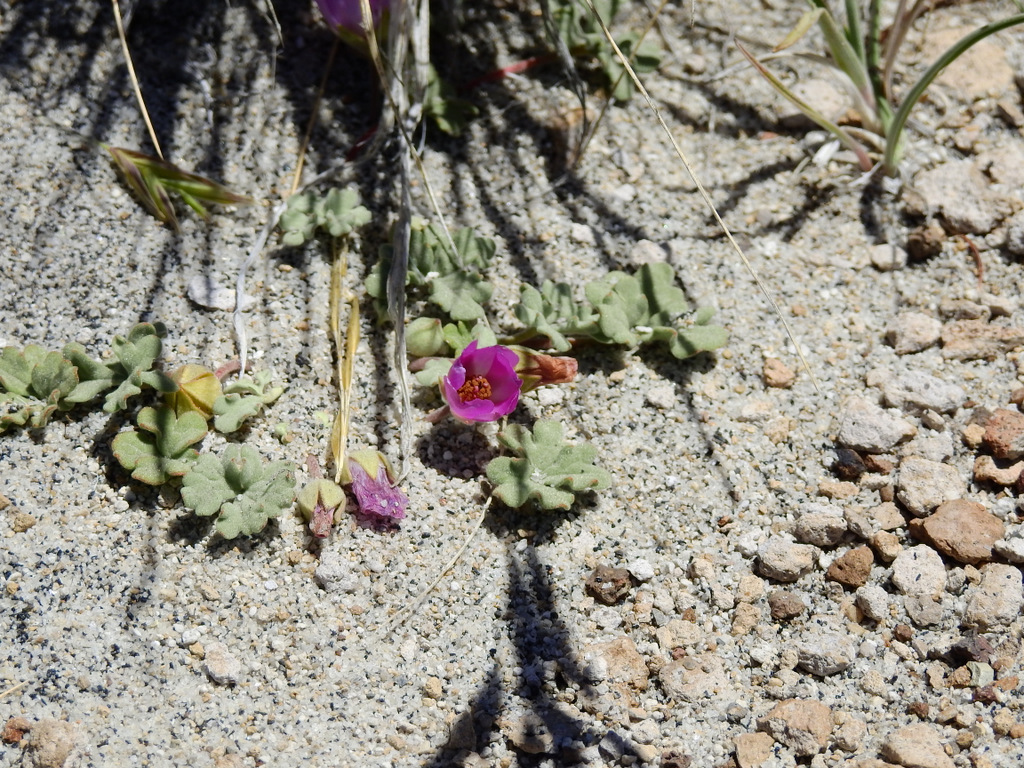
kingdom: Plantae
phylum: Tracheophyta
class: Magnoliopsida
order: Malvales
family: Malvaceae
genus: Tarasa
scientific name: Tarasa humilis
